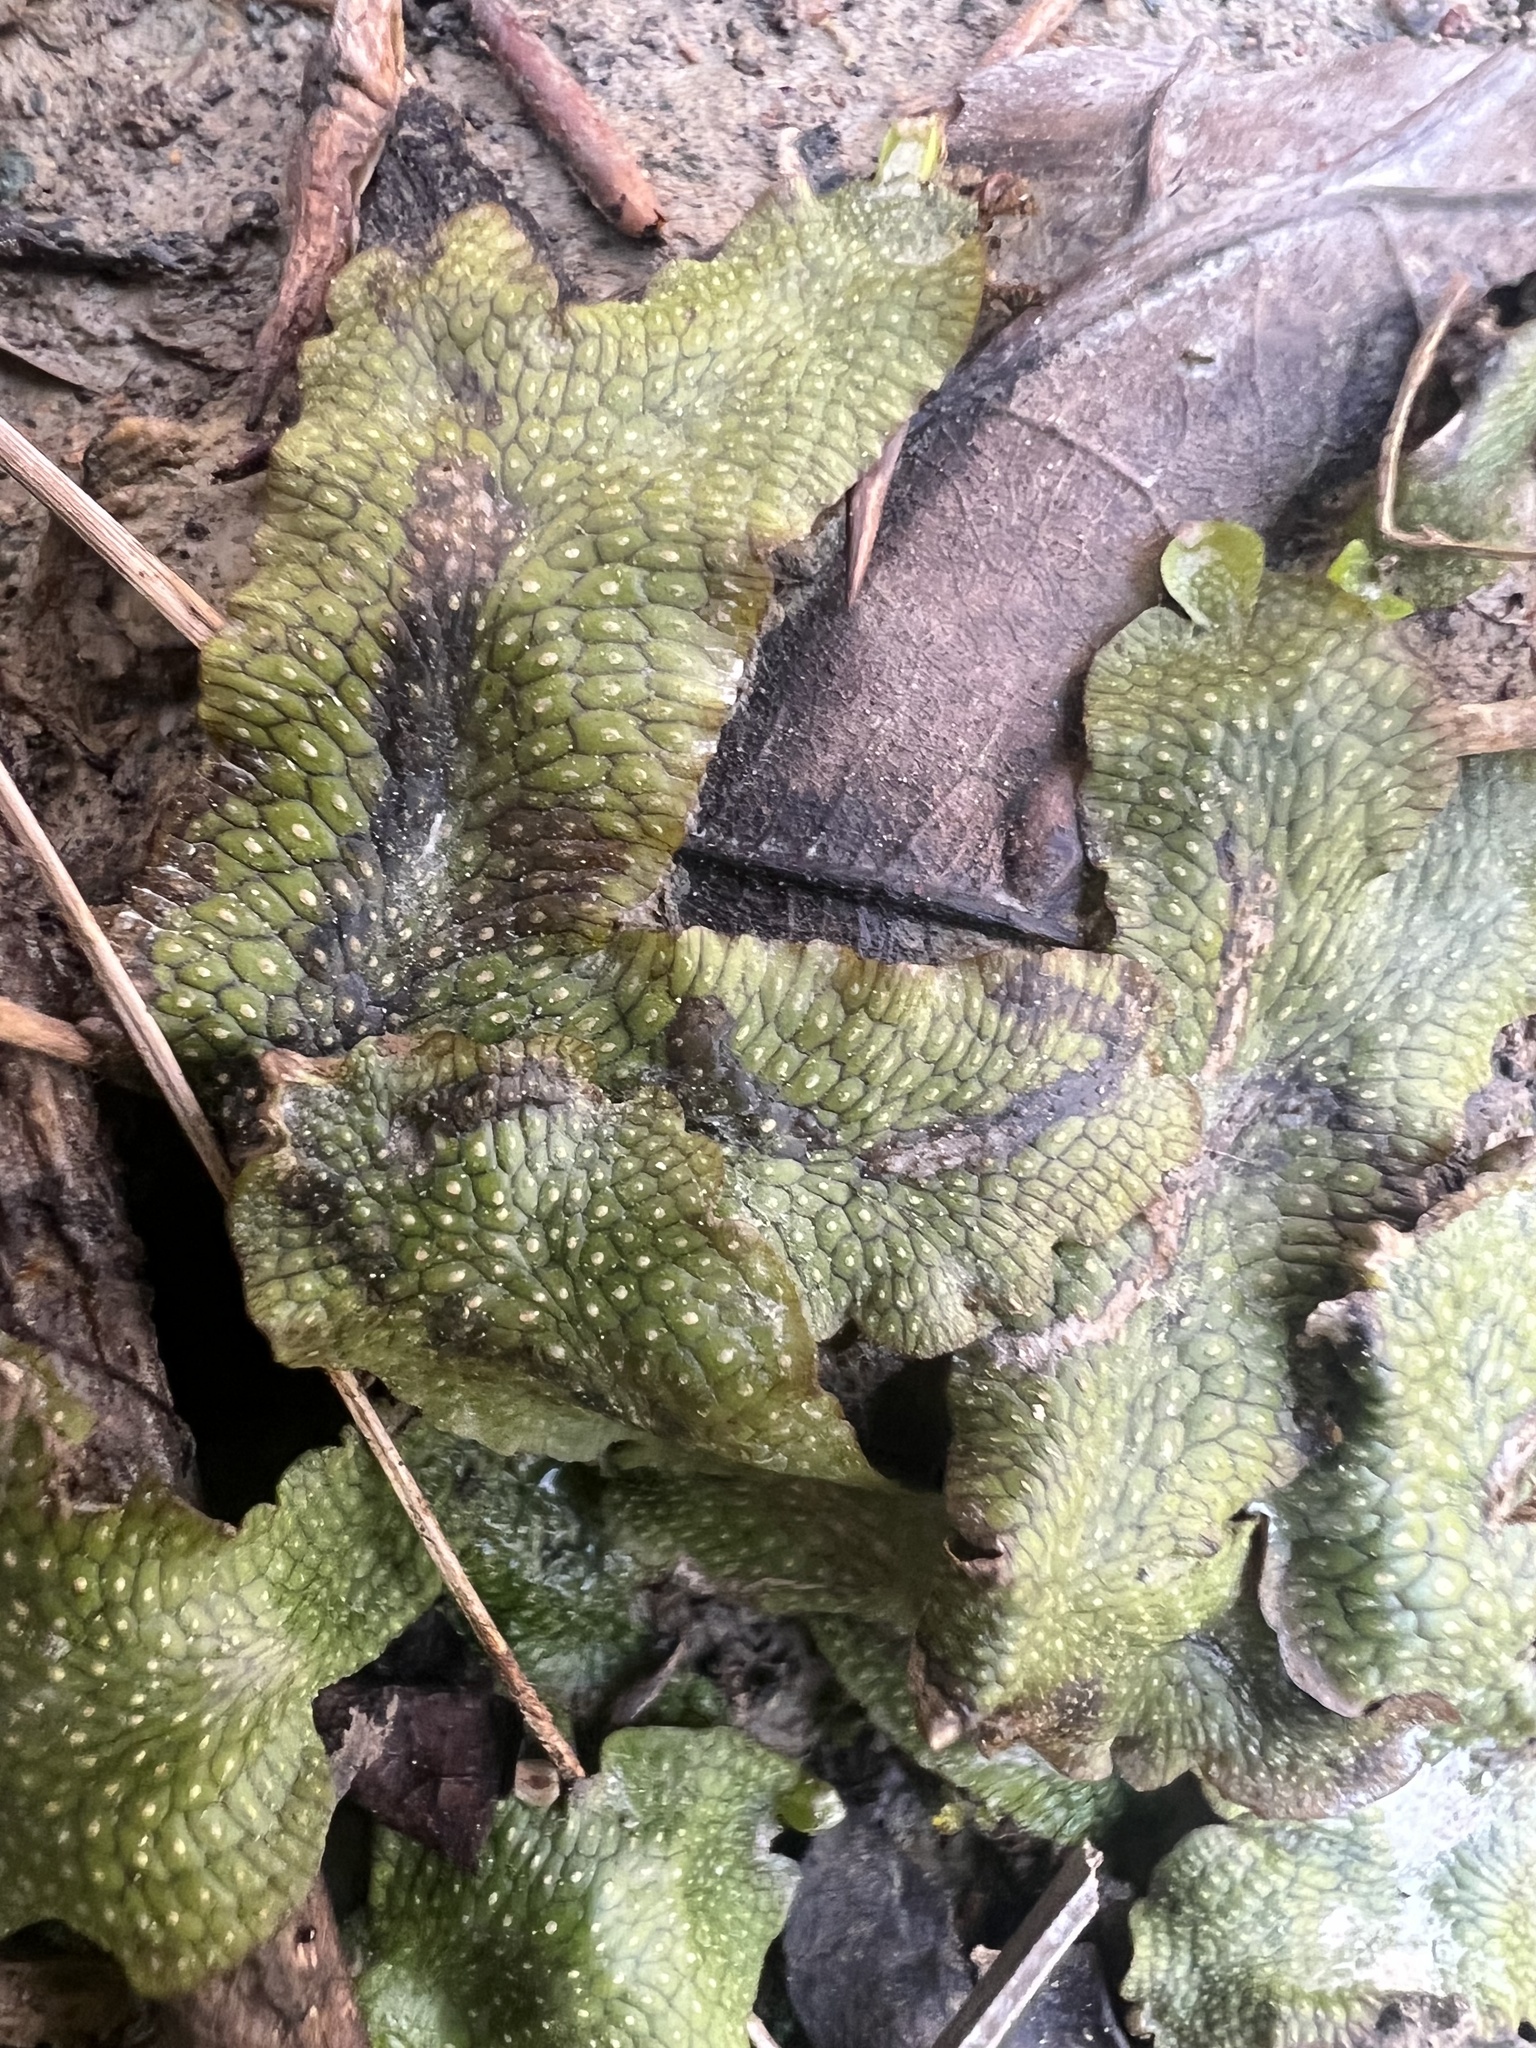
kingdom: Plantae
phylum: Marchantiophyta
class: Marchantiopsida
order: Marchantiales
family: Conocephalaceae
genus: Conocephalum
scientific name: Conocephalum salebrosum
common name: Cat-tongue liverwort
